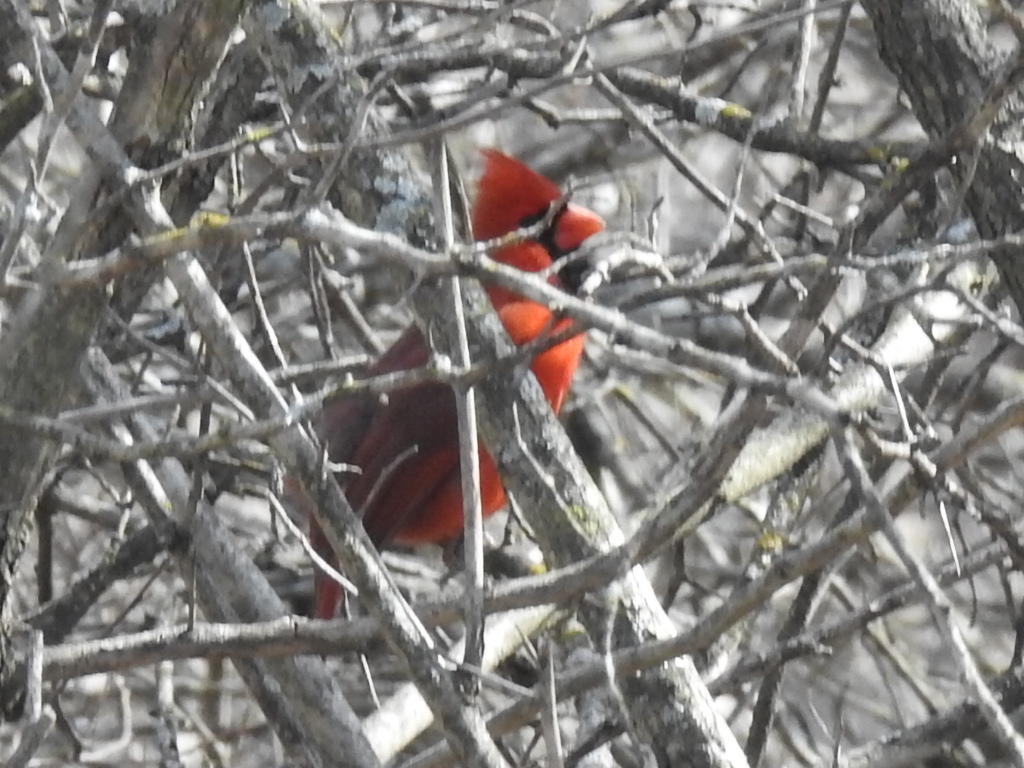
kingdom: Animalia
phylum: Chordata
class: Aves
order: Passeriformes
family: Cardinalidae
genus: Cardinalis
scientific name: Cardinalis cardinalis
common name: Northern cardinal
